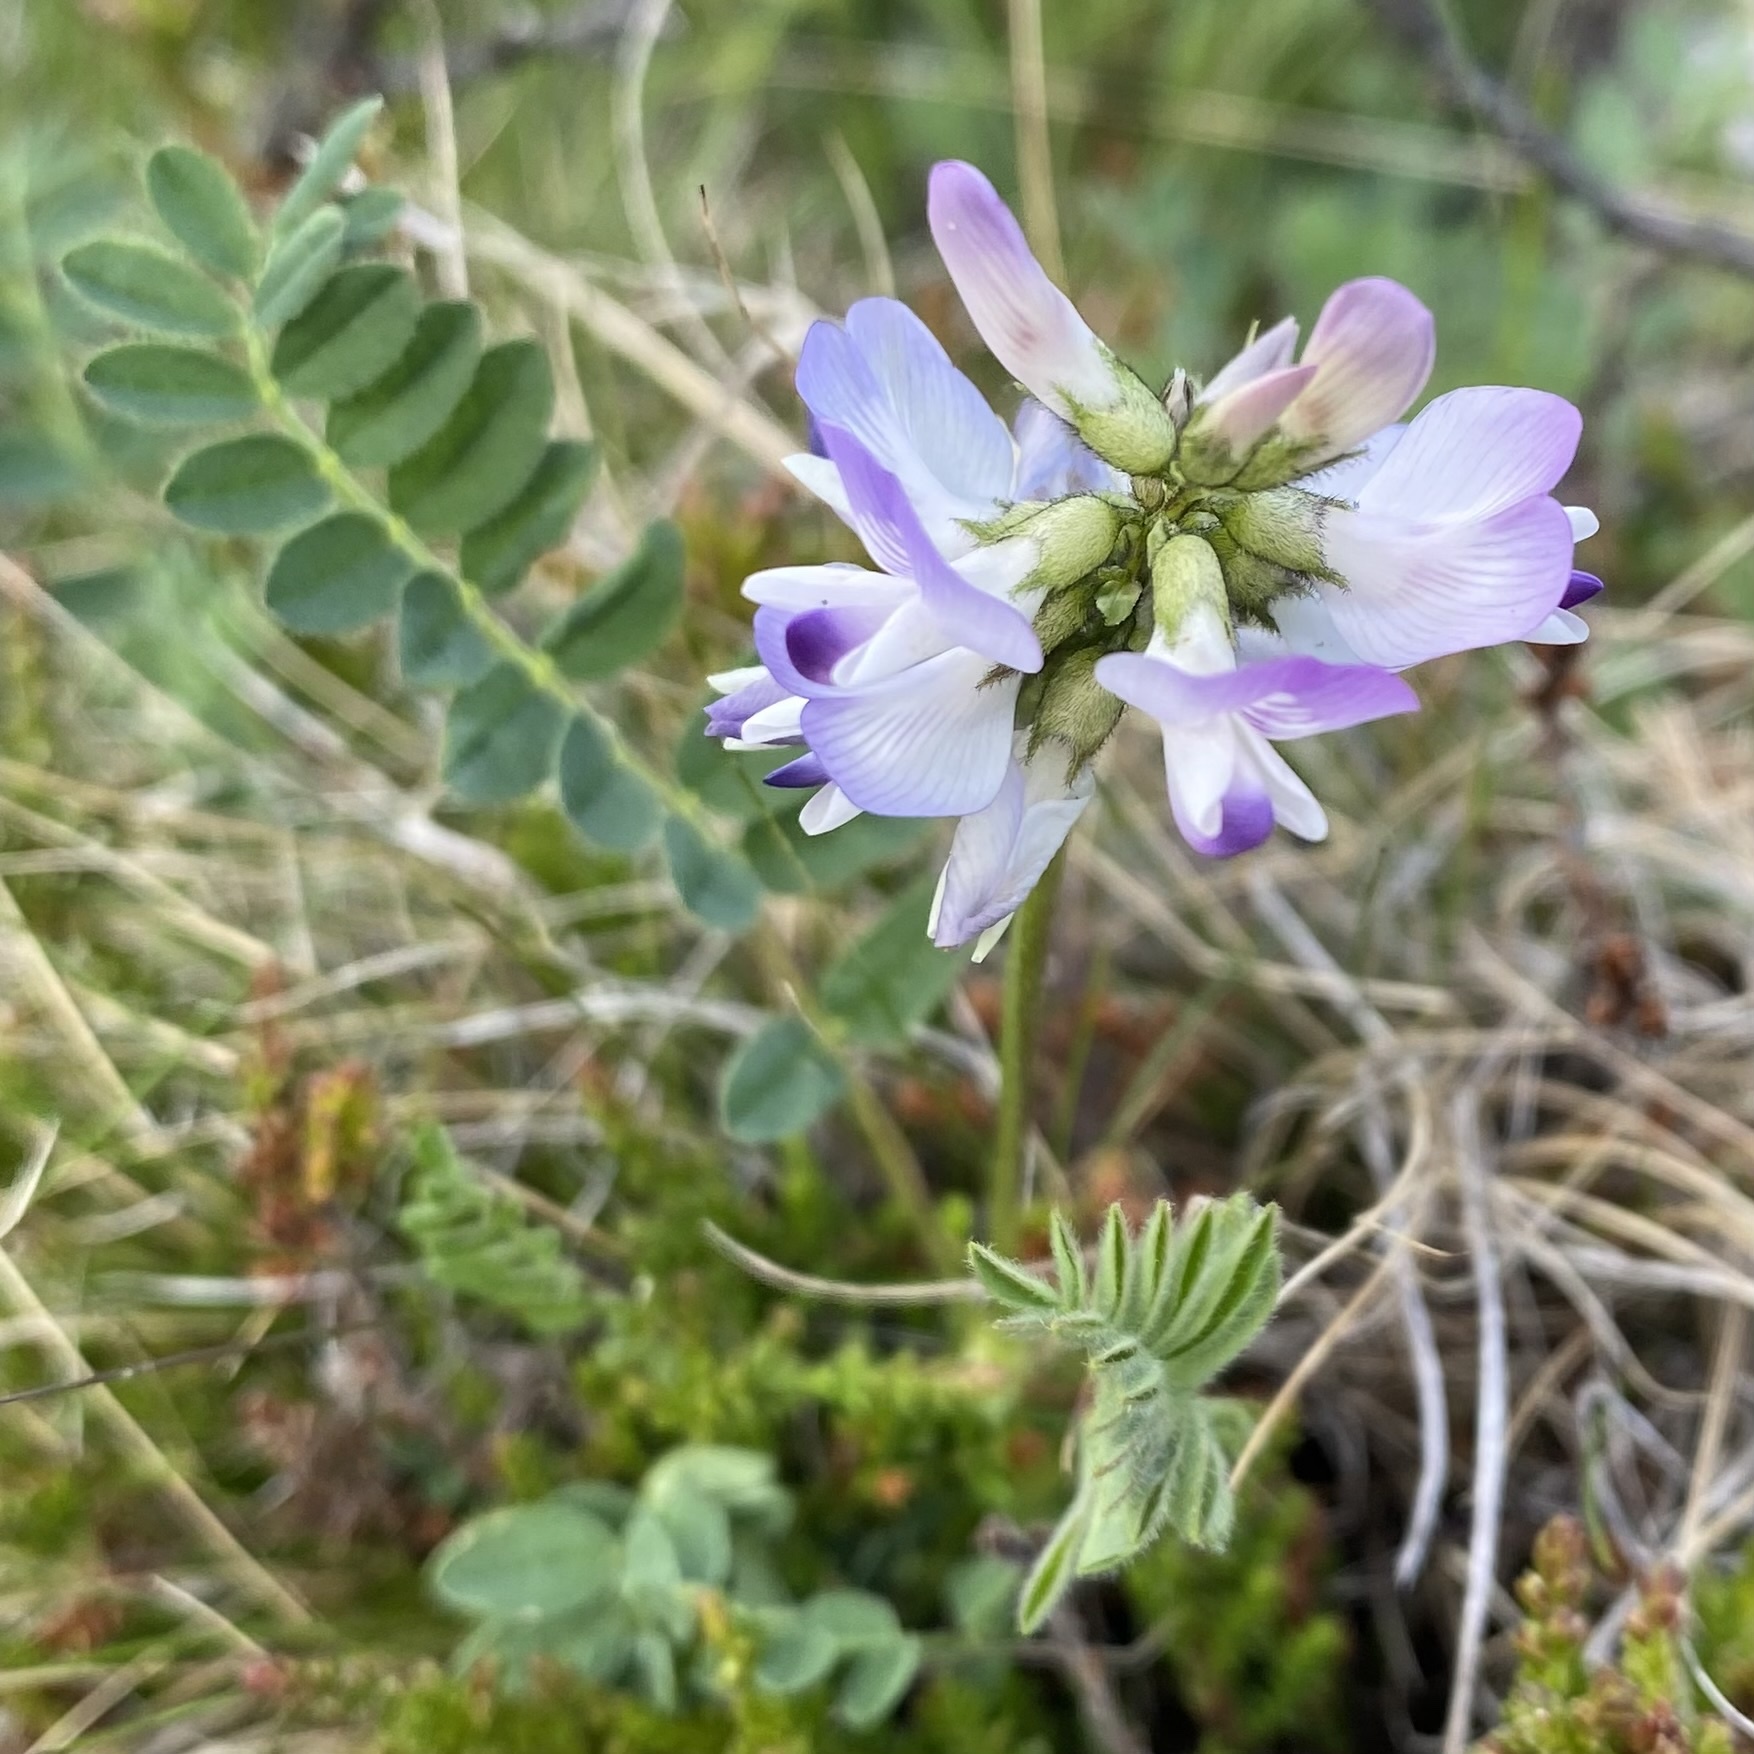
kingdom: Plantae
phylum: Tracheophyta
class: Magnoliopsida
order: Fabales
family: Fabaceae
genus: Astragalus
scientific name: Astragalus alpinus
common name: Alpine milk-vetch
